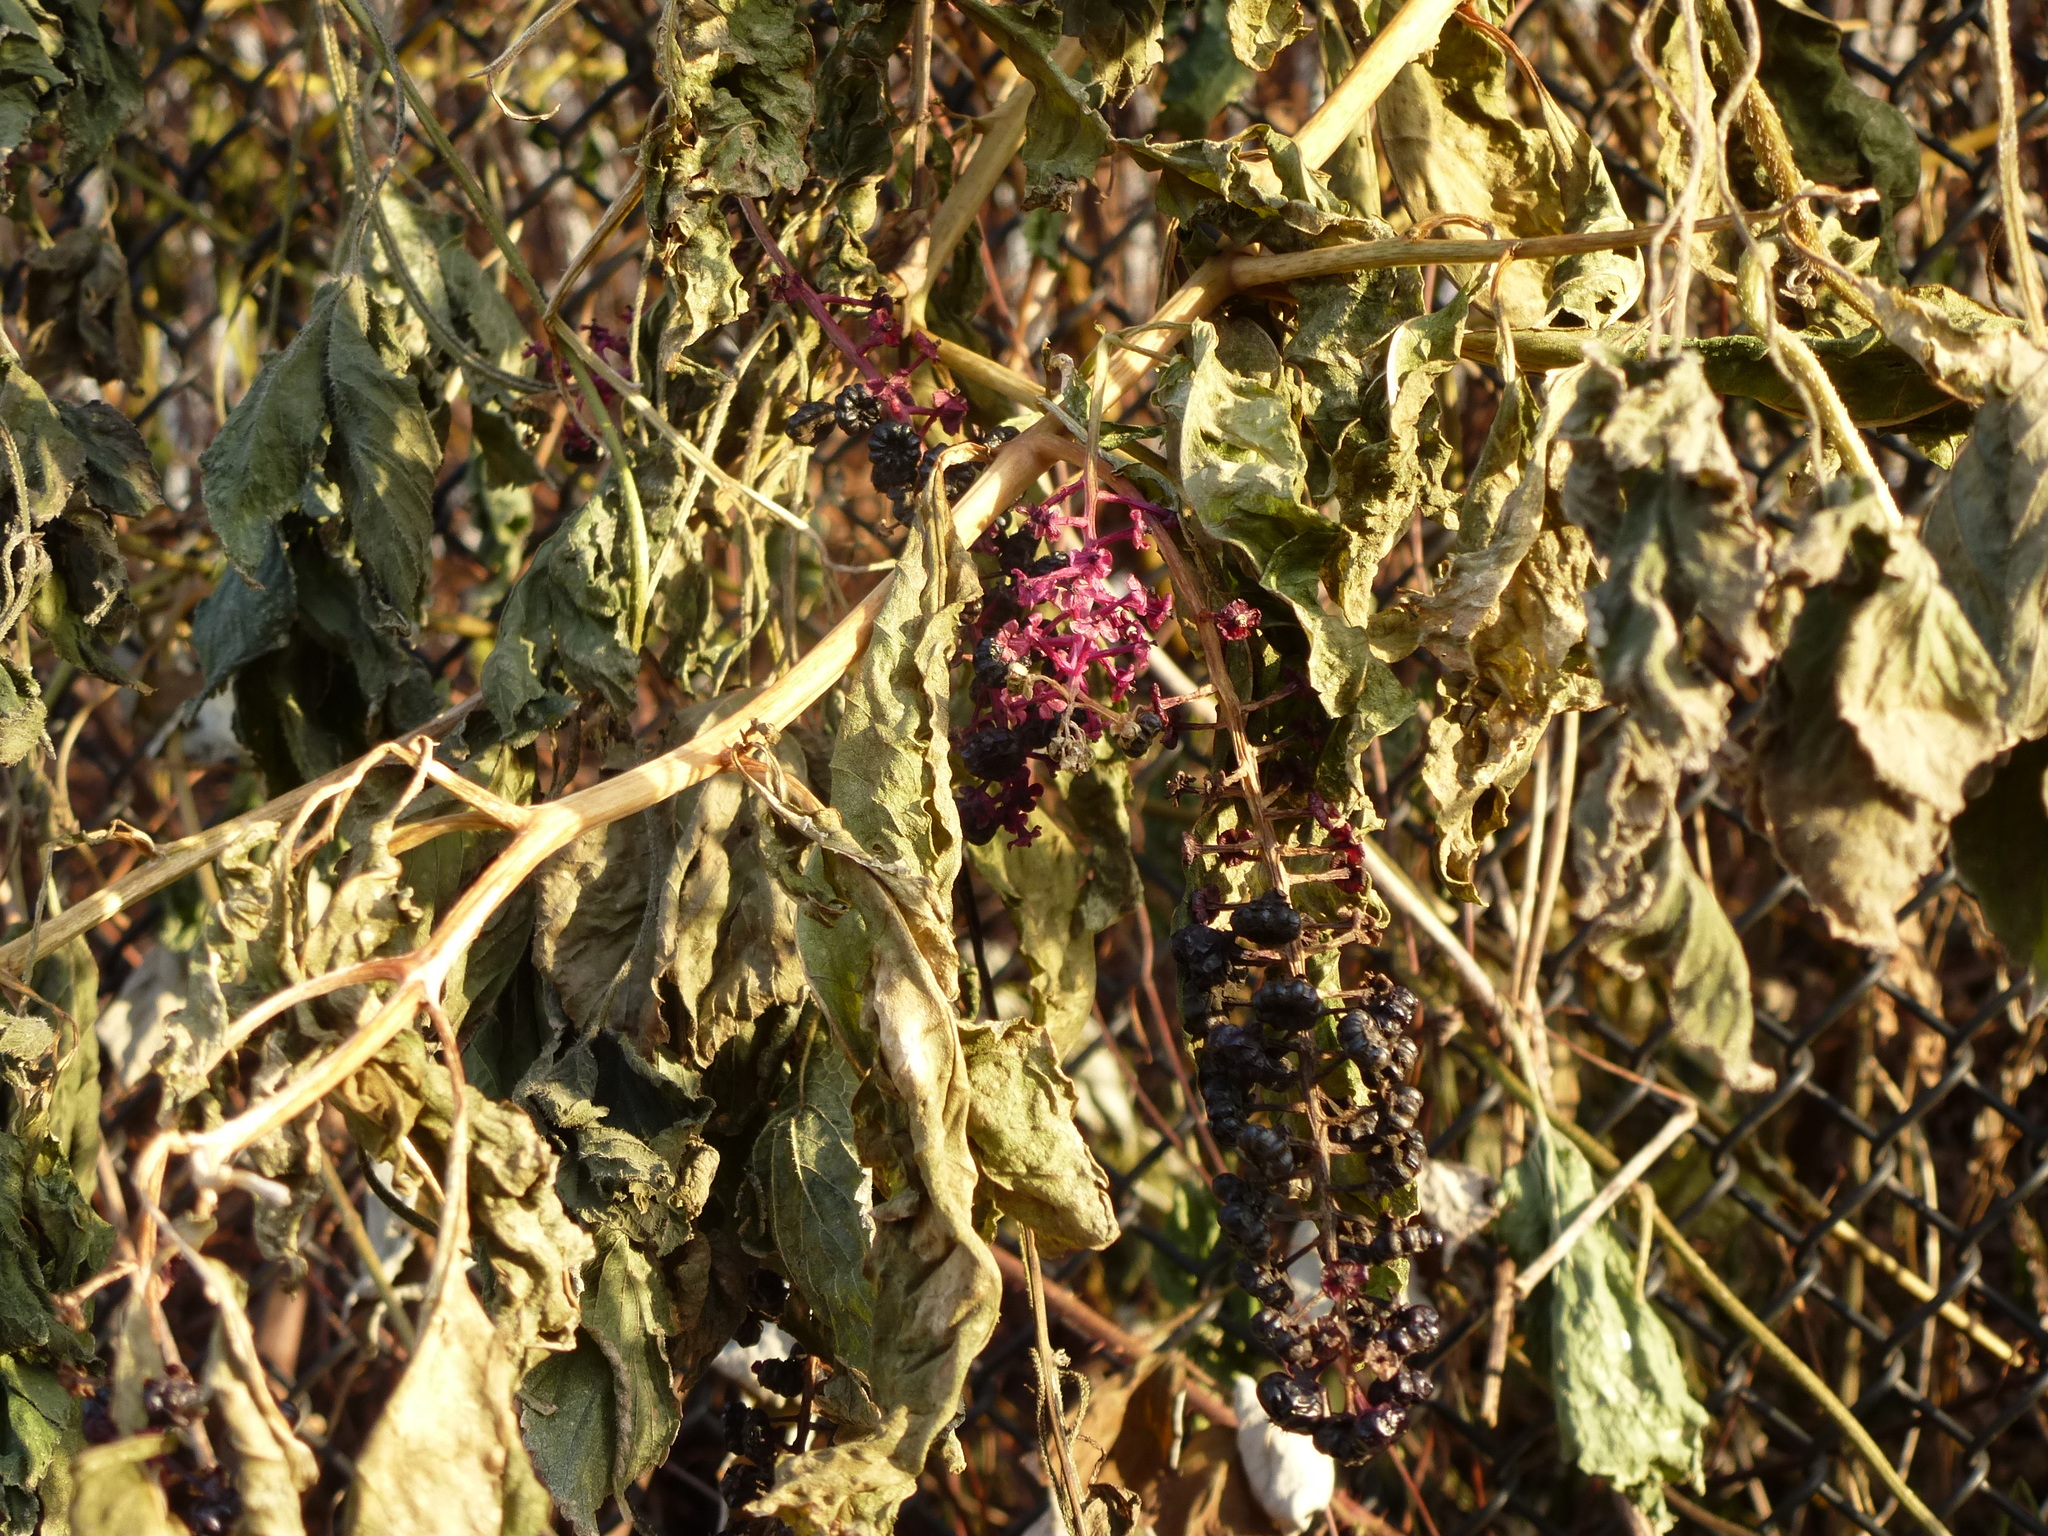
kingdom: Plantae
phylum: Tracheophyta
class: Magnoliopsida
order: Caryophyllales
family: Phytolaccaceae
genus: Phytolacca
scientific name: Phytolacca americana
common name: American pokeweed
